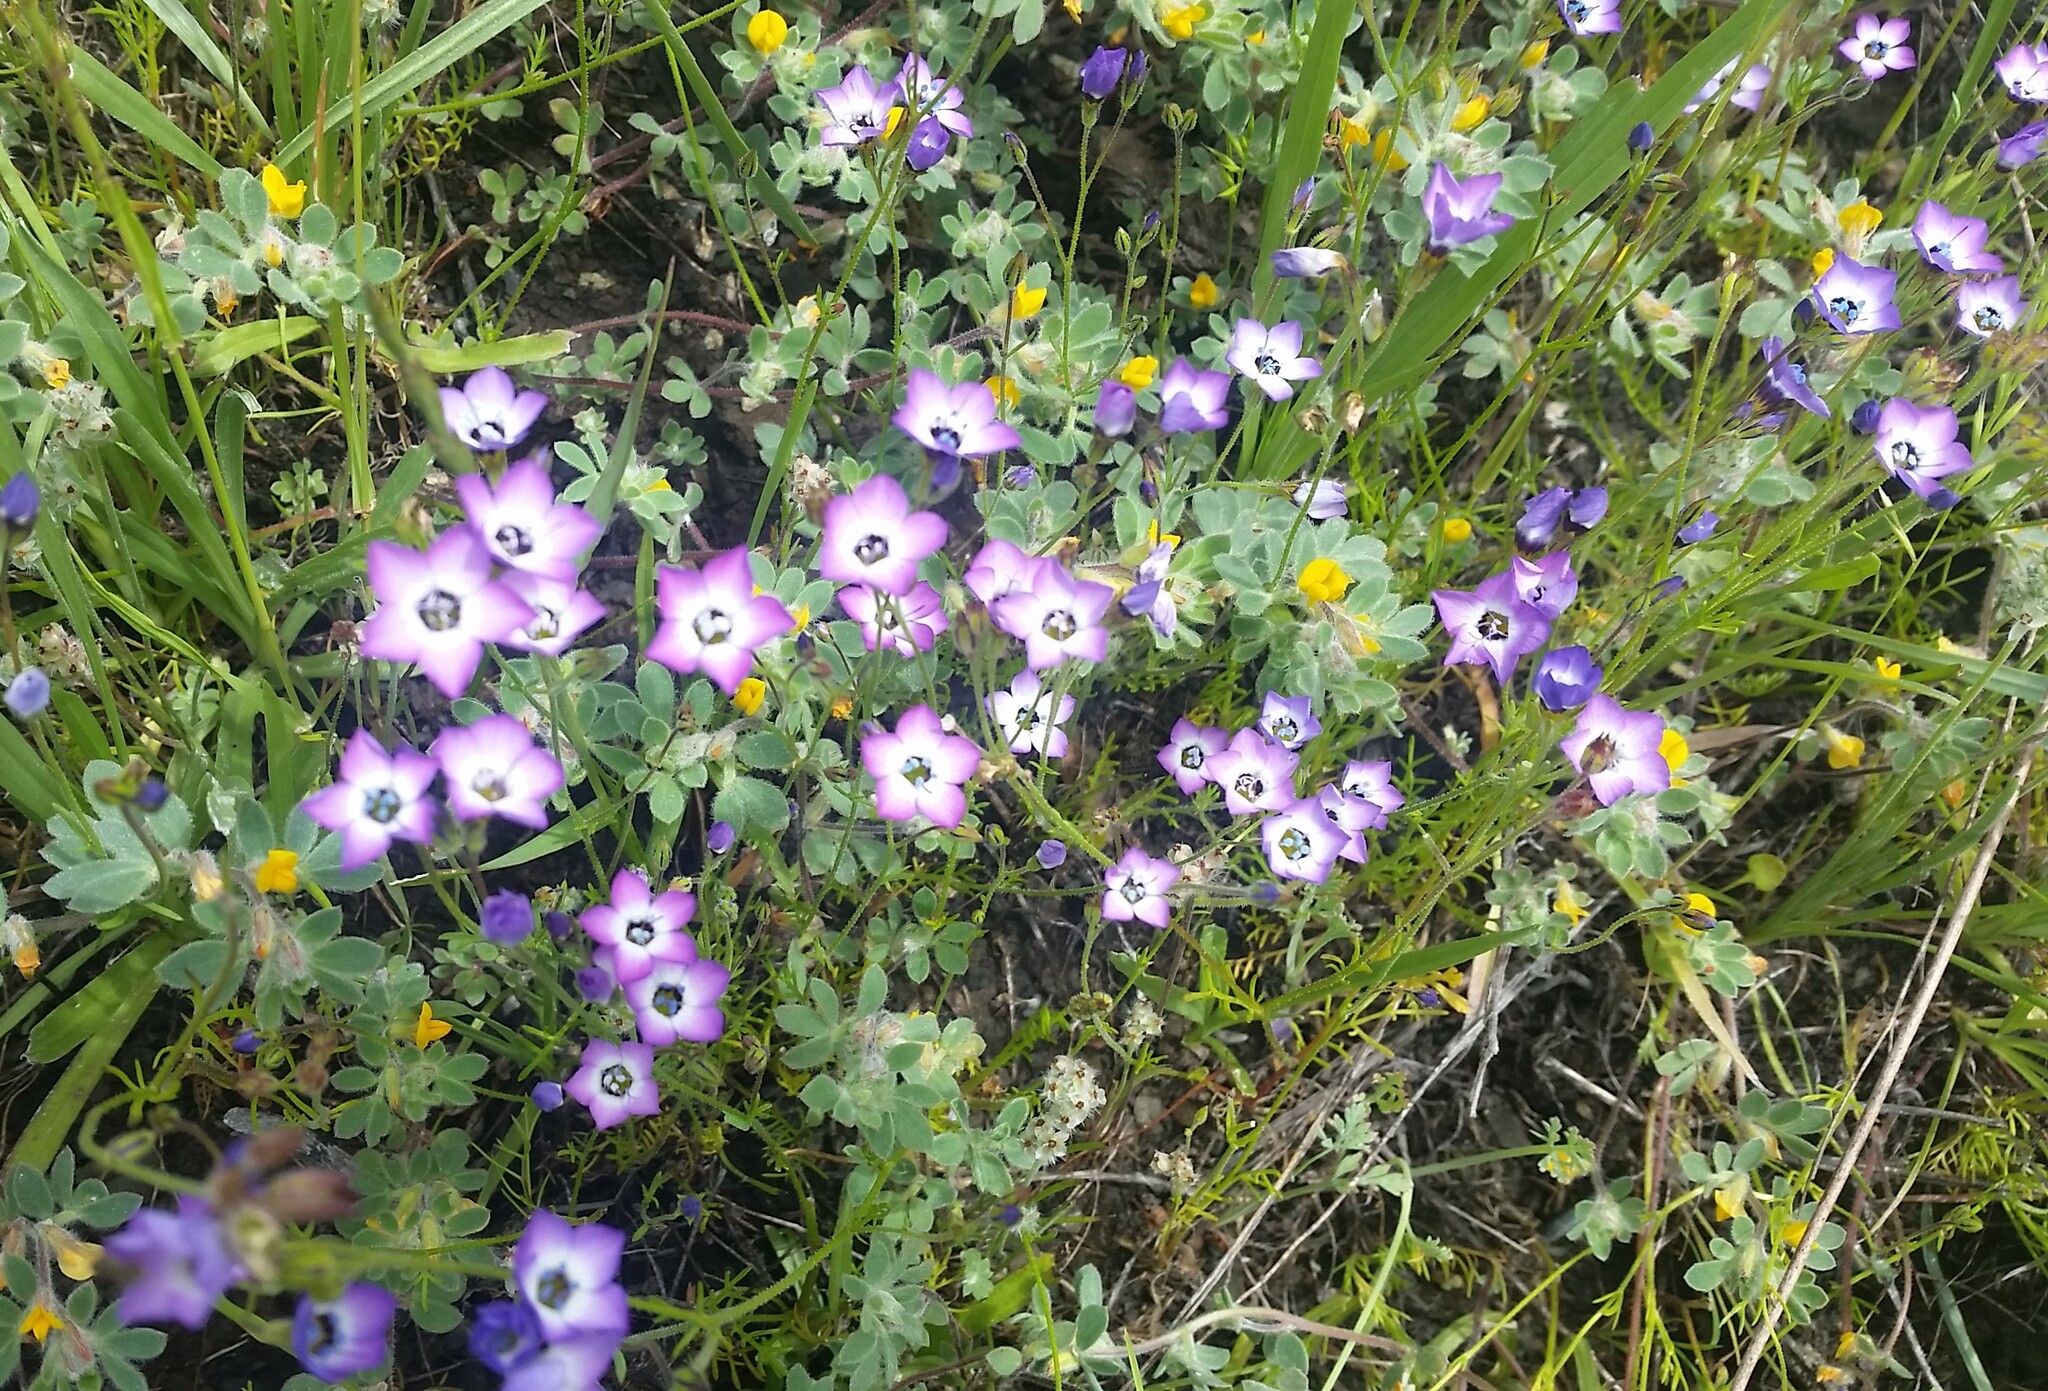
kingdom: Plantae
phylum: Tracheophyta
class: Magnoliopsida
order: Ericales
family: Polemoniaceae
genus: Gilia
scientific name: Gilia tricolor
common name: Bird's-eyes
